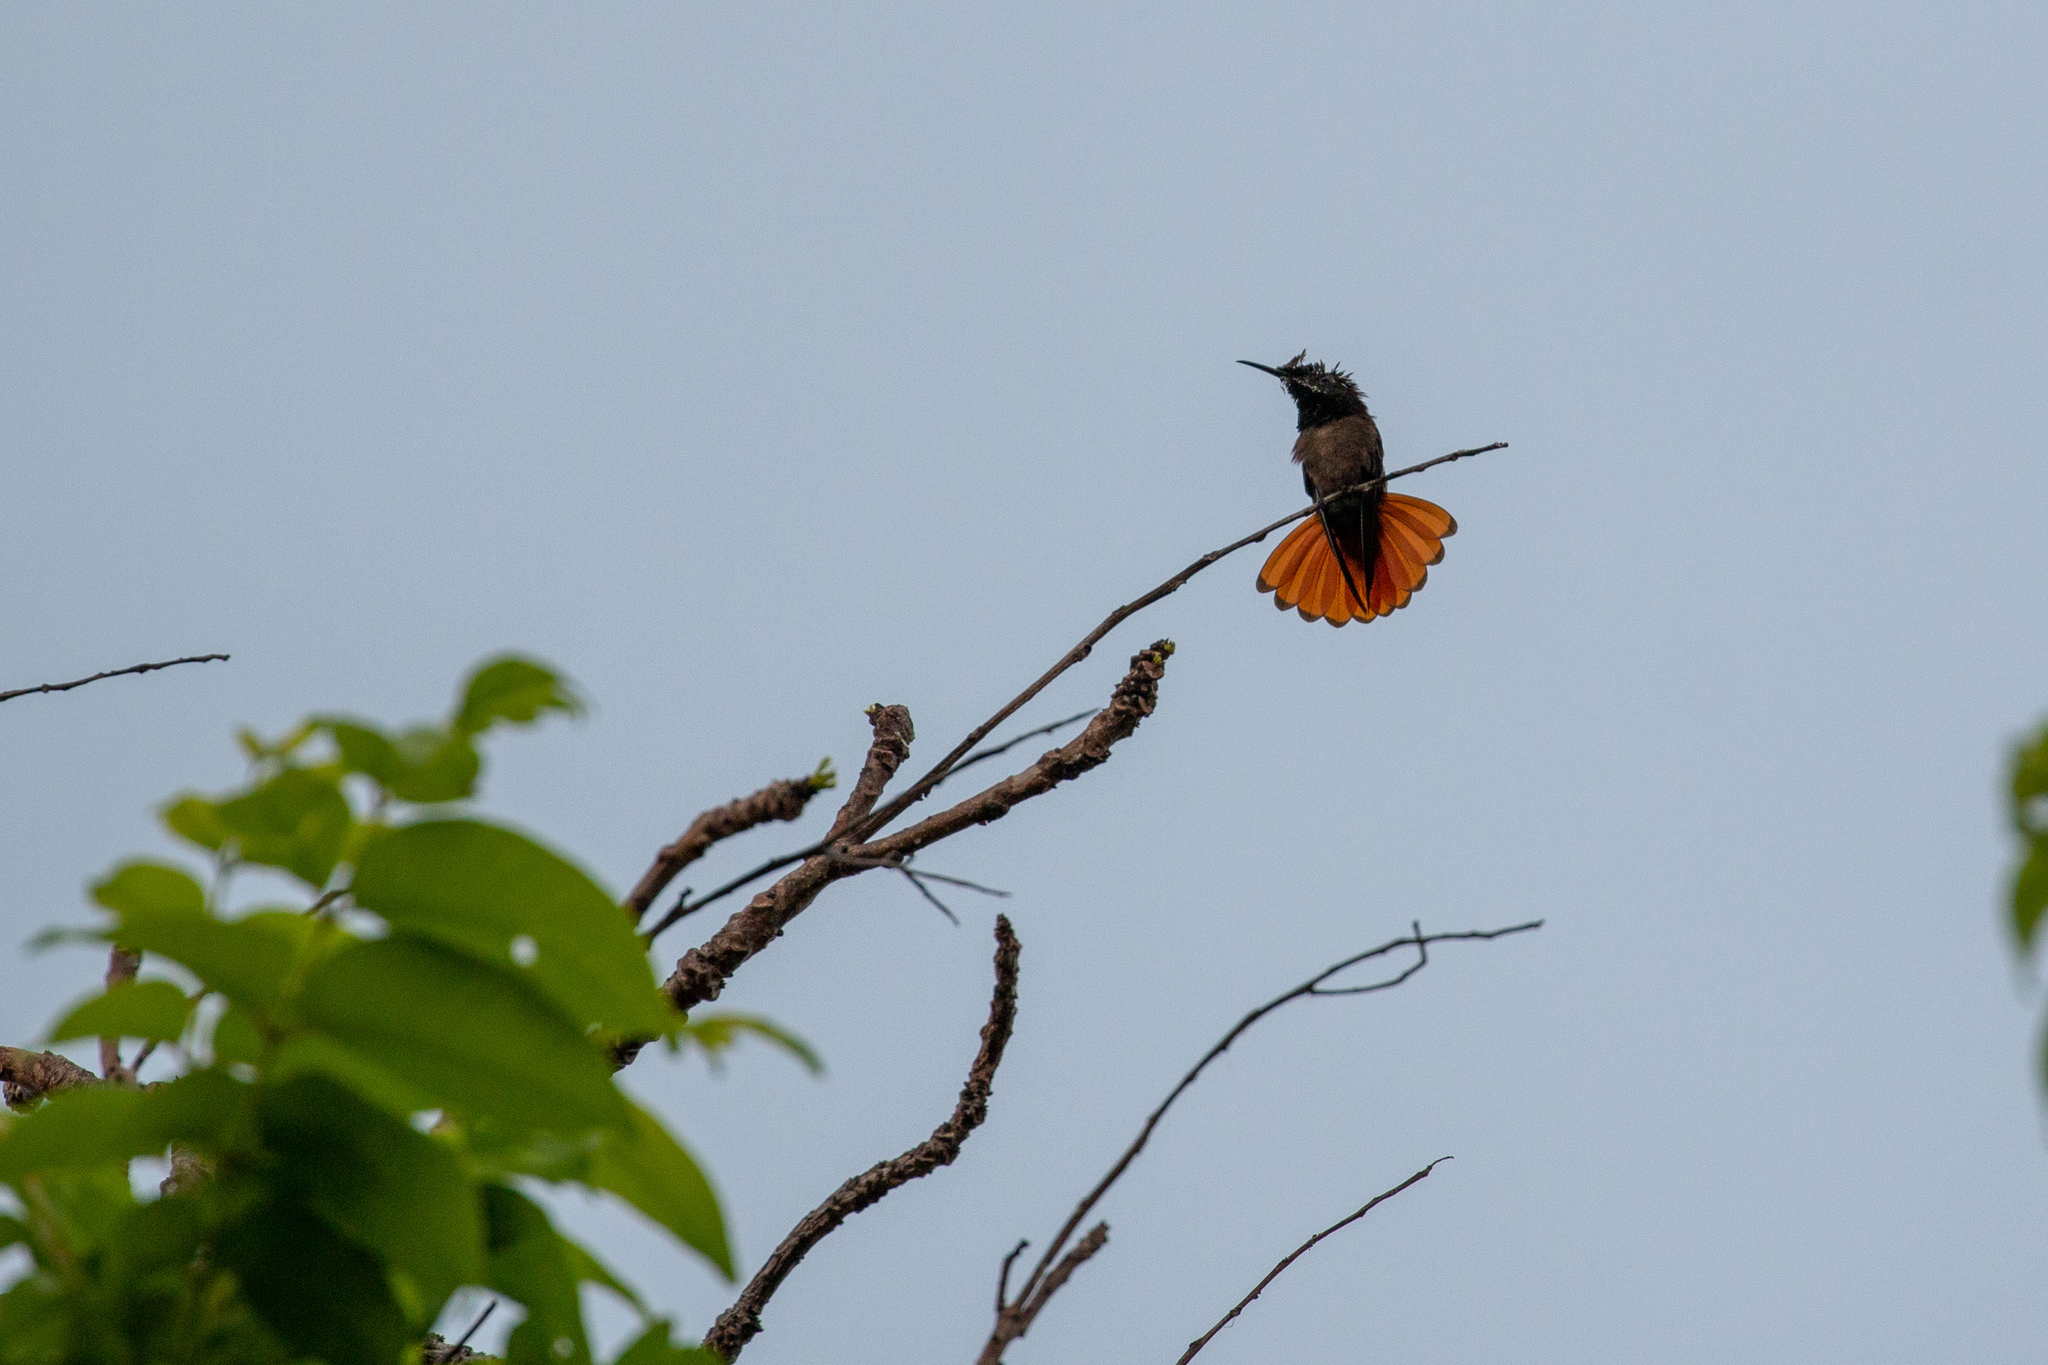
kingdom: Animalia
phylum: Chordata
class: Aves
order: Apodiformes
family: Trochilidae
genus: Chrysolampis
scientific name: Chrysolampis mosquitus
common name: Ruby-topaz hummingbird
